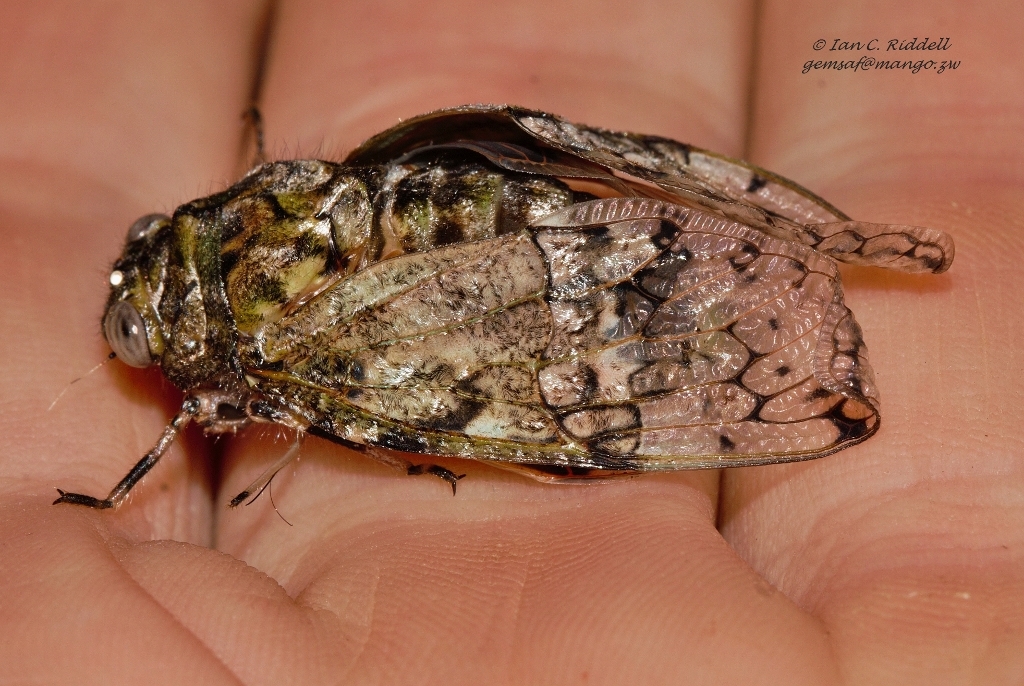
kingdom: Animalia
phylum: Arthropoda
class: Insecta
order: Hemiptera
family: Cicadidae
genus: Orapa
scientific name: Orapa numa
